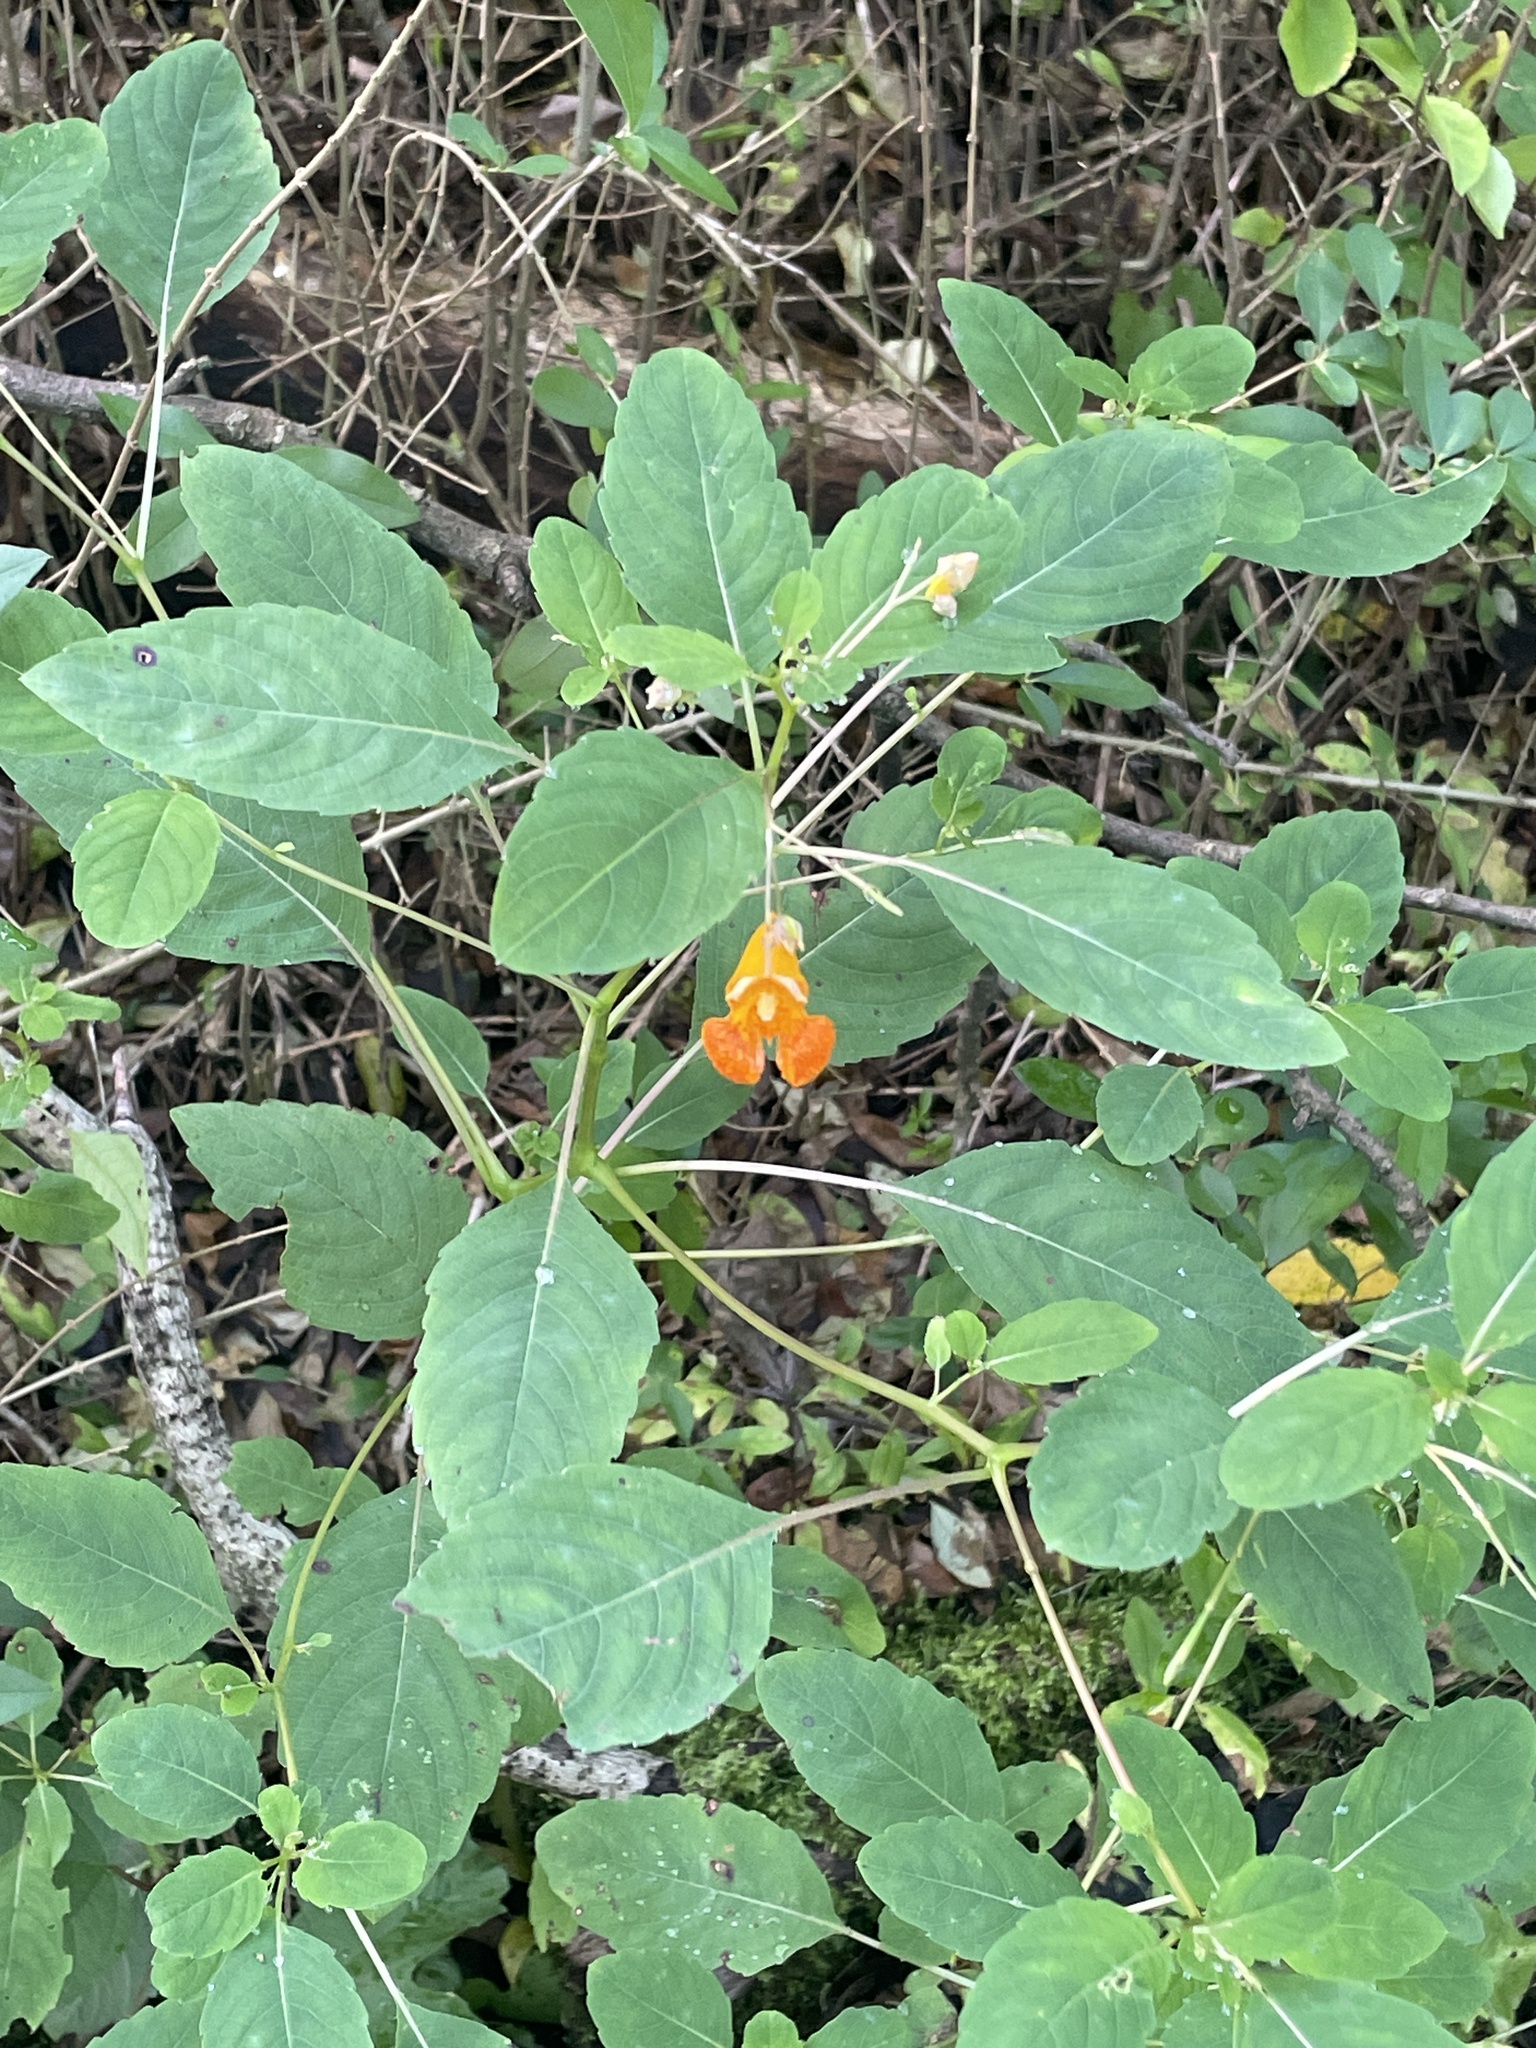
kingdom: Plantae
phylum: Tracheophyta
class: Magnoliopsida
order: Ericales
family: Balsaminaceae
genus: Impatiens
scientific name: Impatiens capensis
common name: Orange balsam
